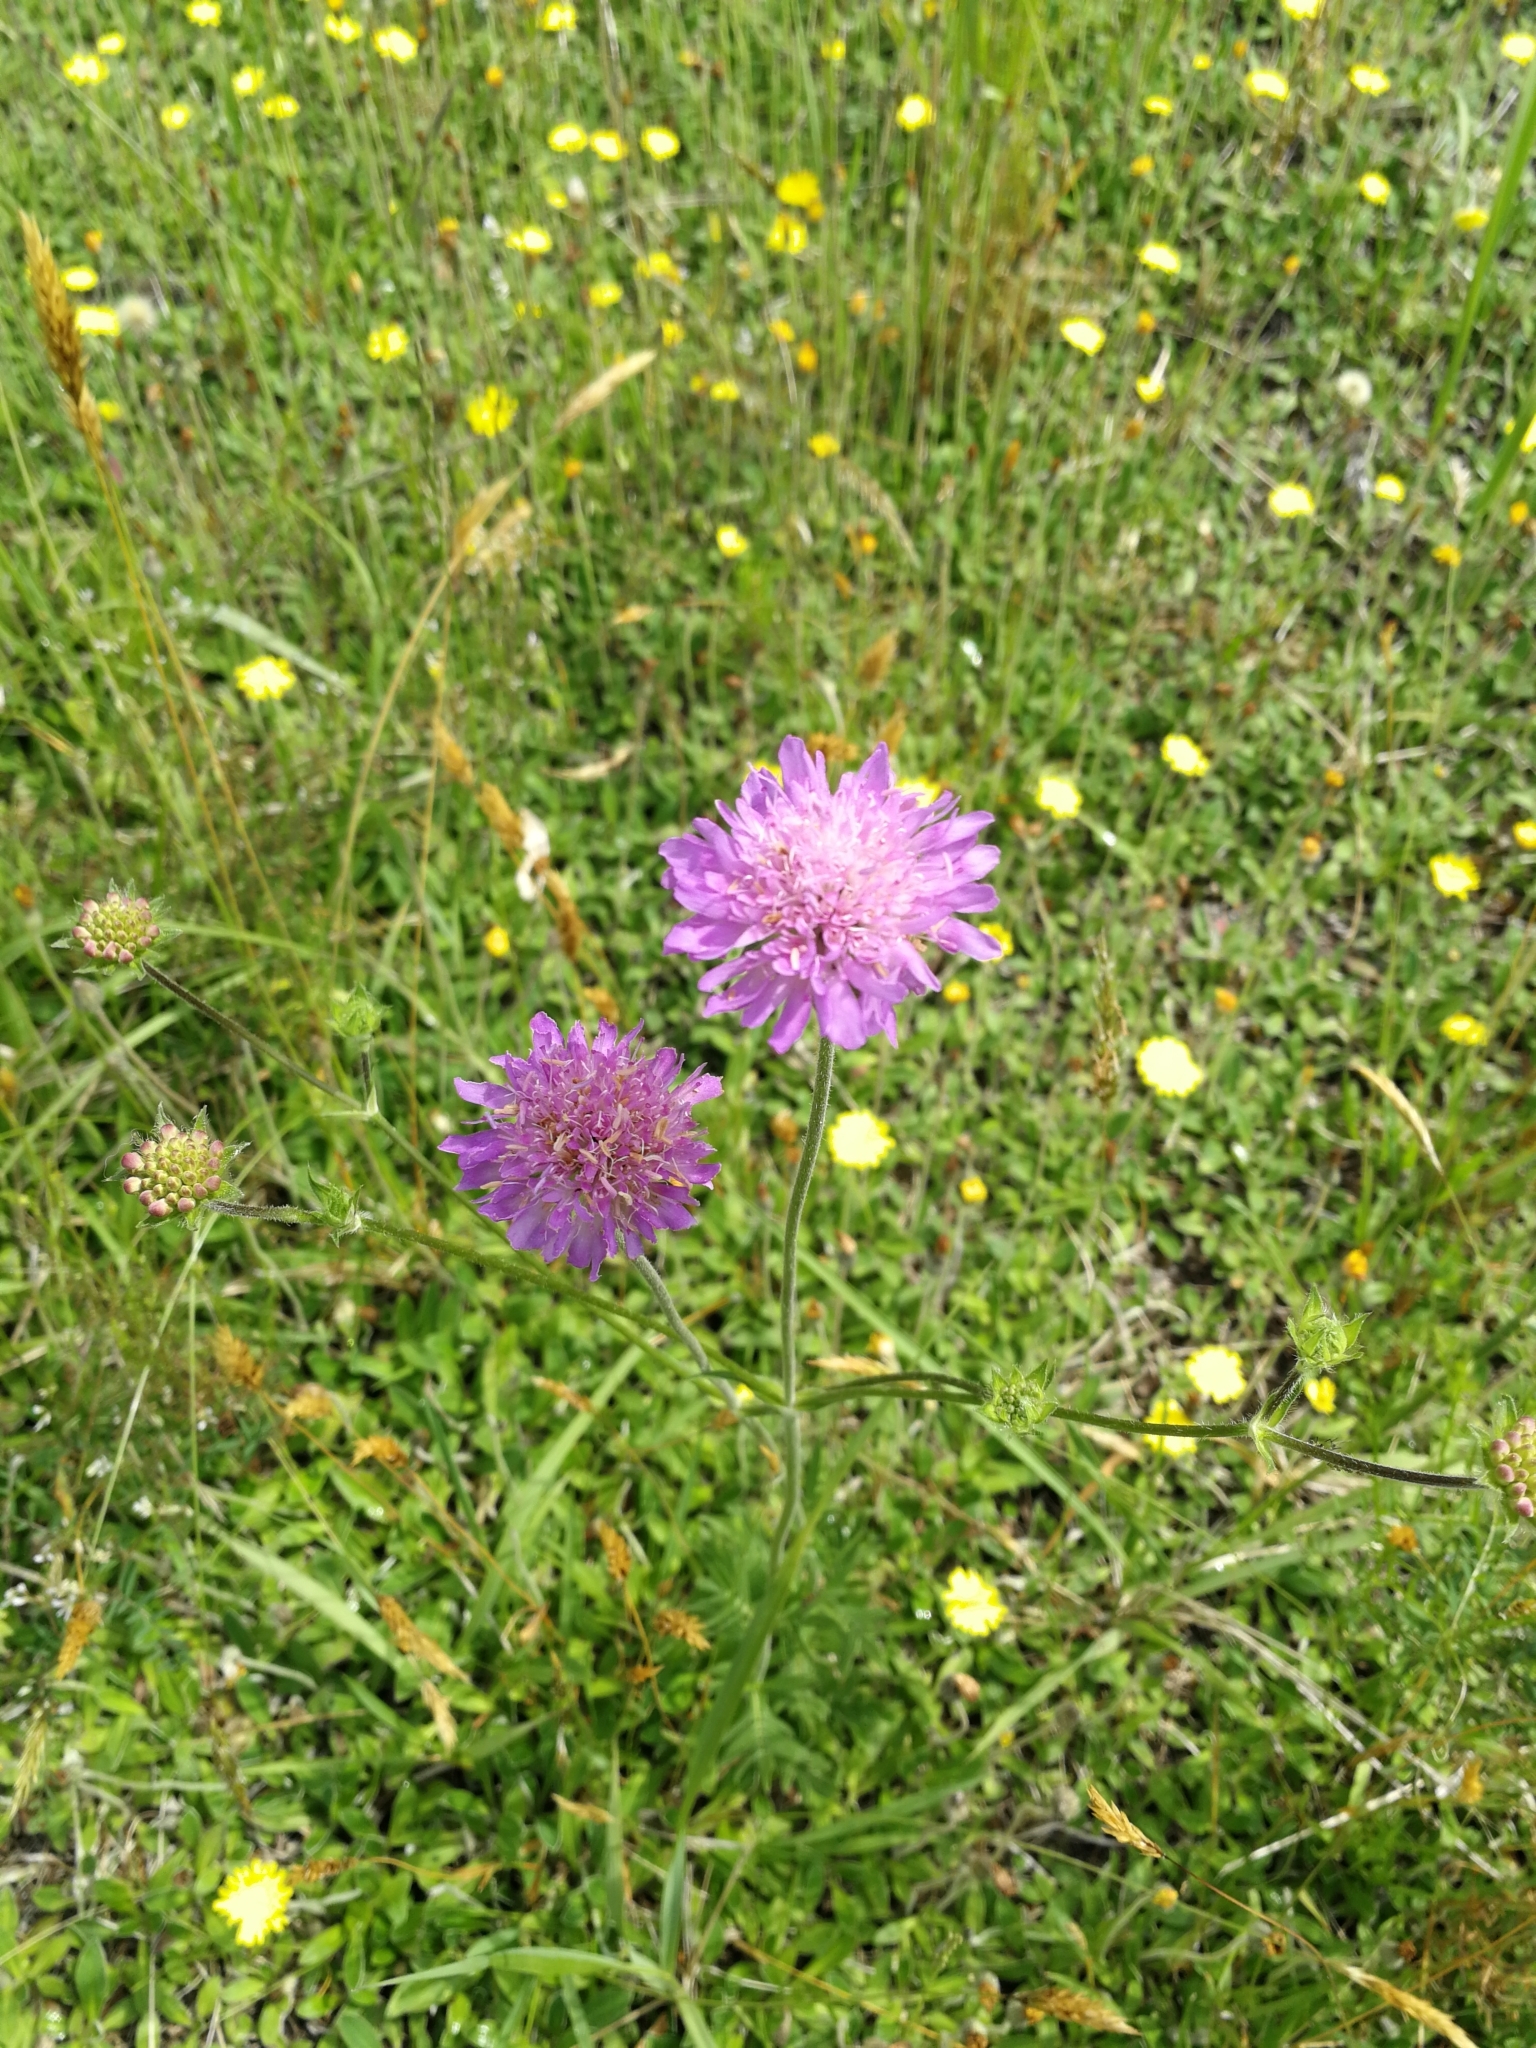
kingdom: Plantae
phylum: Tracheophyta
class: Magnoliopsida
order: Dipsacales
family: Caprifoliaceae
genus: Knautia
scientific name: Knautia arvensis
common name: Field scabiosa
